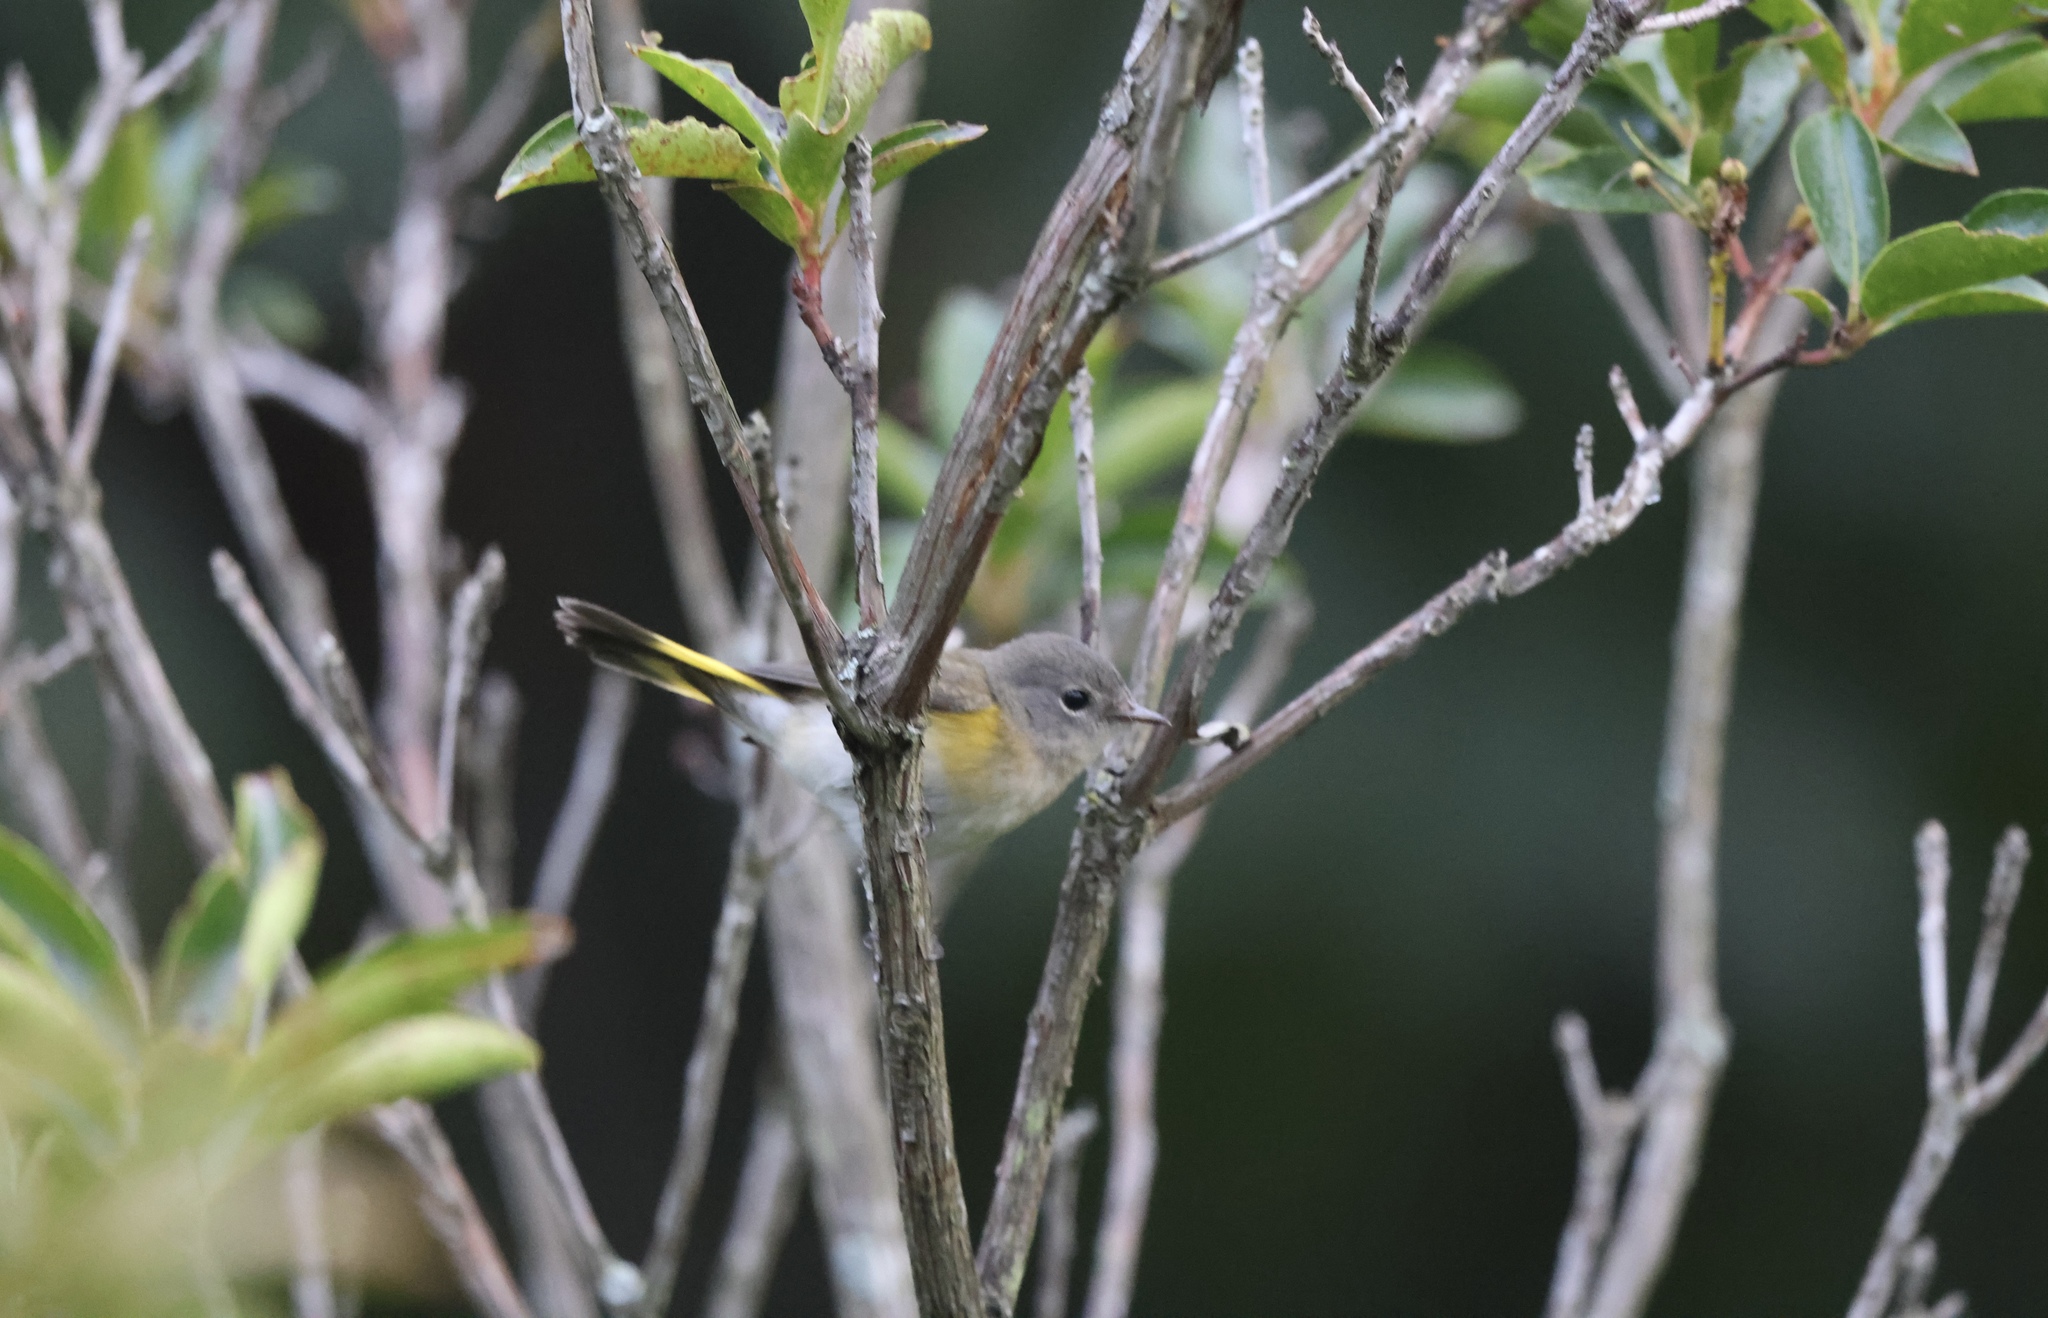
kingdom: Animalia
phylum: Chordata
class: Aves
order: Passeriformes
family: Parulidae
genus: Setophaga
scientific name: Setophaga ruticilla
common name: American redstart
